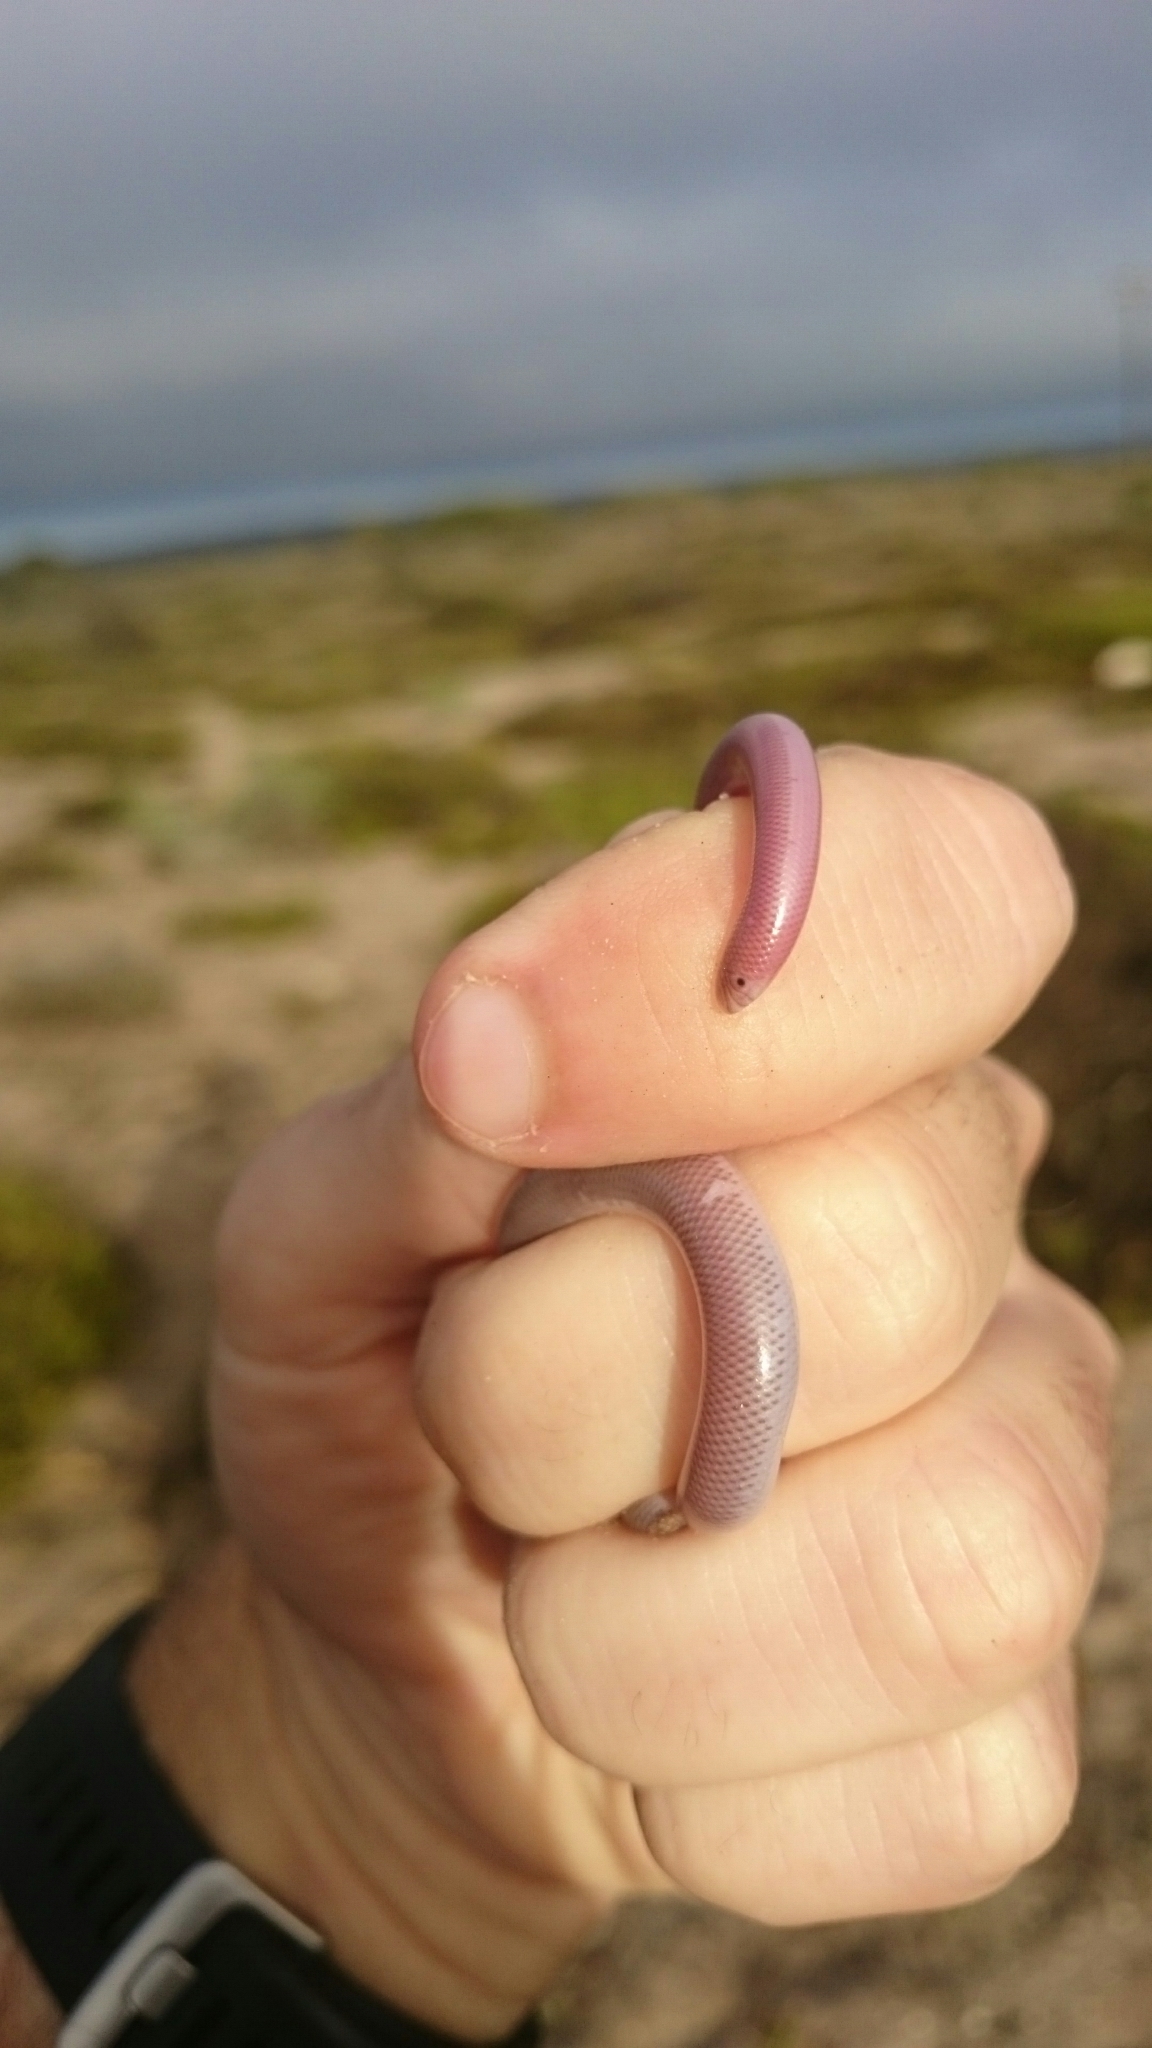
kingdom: Animalia
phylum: Chordata
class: Squamata
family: Typhlopidae
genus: Rhinotyphlops
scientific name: Rhinotyphlops lalandei
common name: Delalande's beaked blind snake
